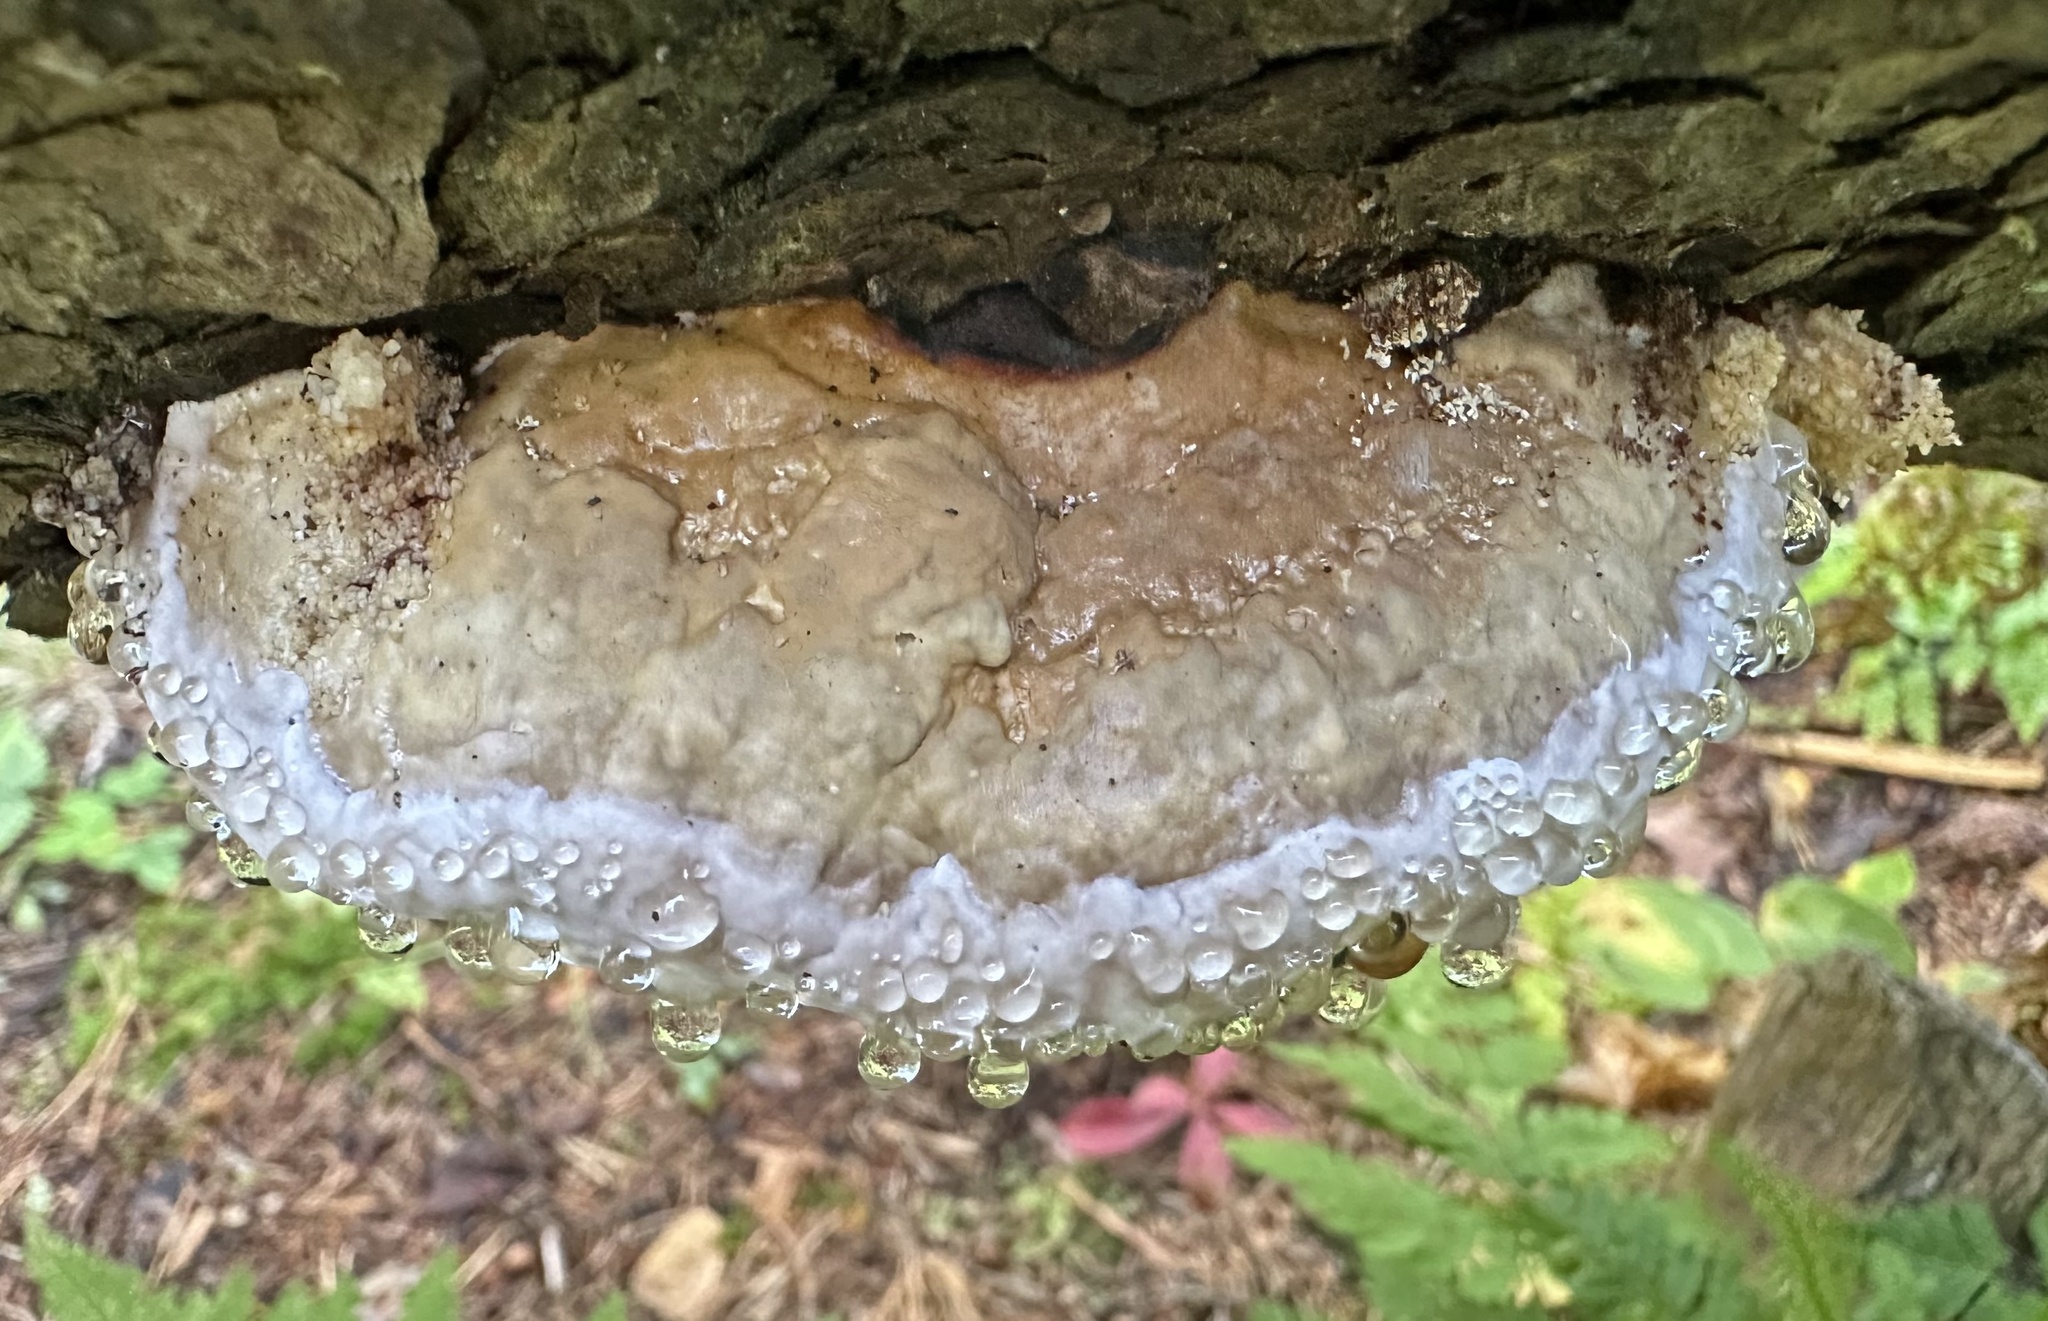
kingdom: Fungi
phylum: Basidiomycota
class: Agaricomycetes
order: Polyporales
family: Fomitopsidaceae
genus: Fomitopsis
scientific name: Fomitopsis pinicola
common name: Red-belted bracket
